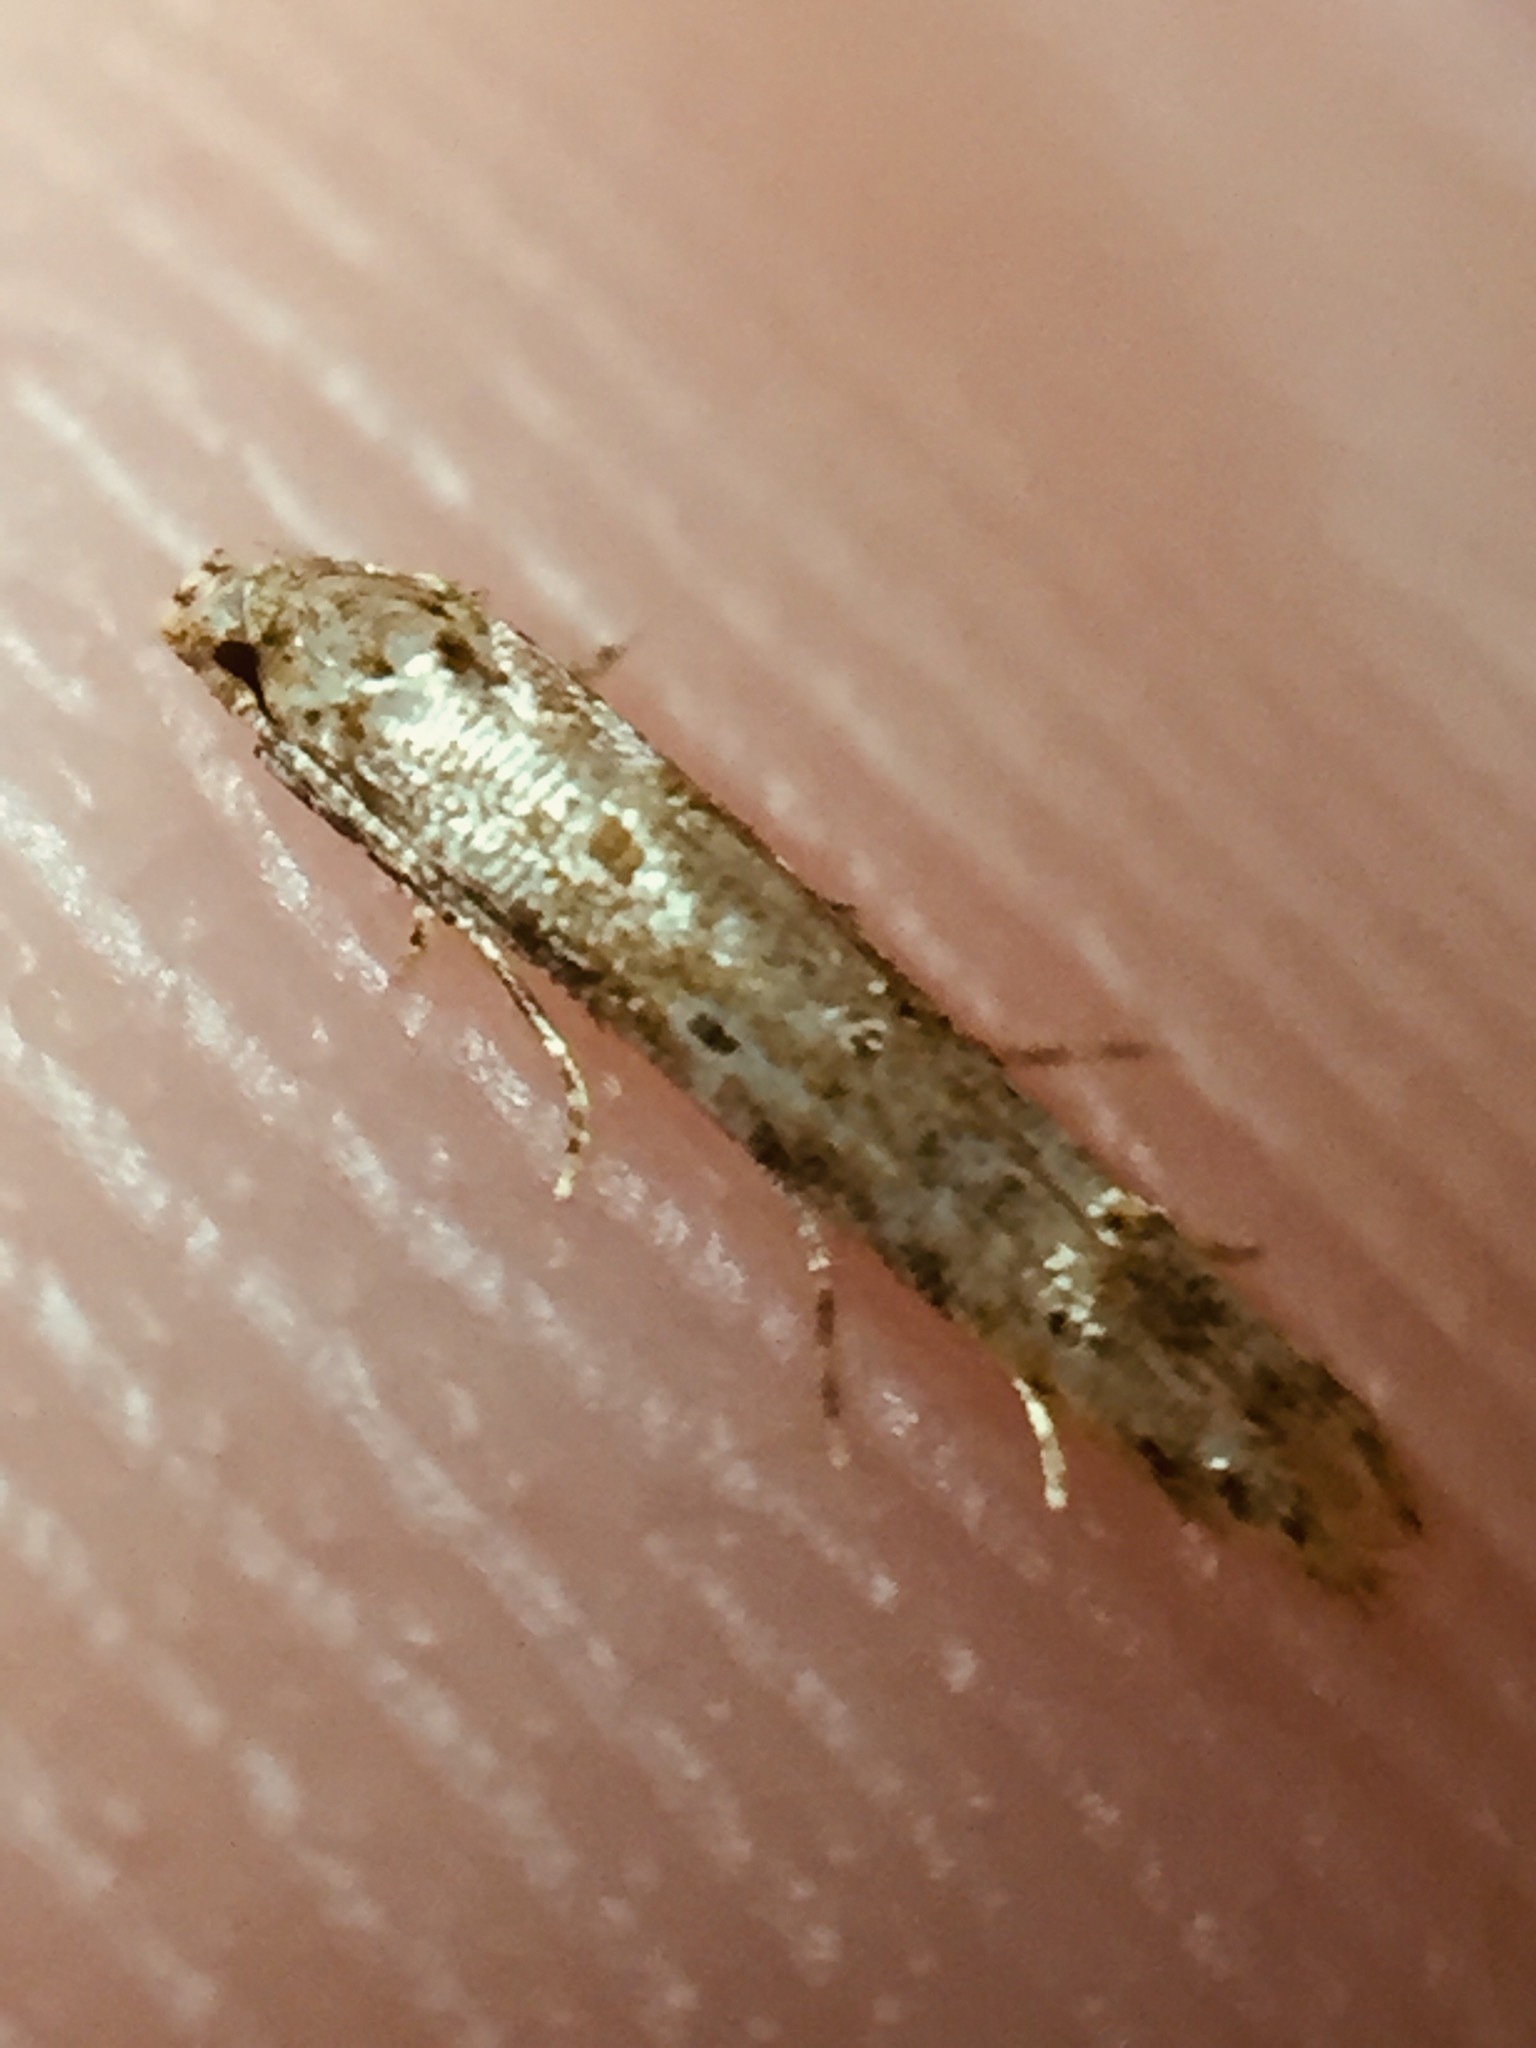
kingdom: Animalia
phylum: Arthropoda
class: Insecta
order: Lepidoptera
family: Elachistidae
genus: Microcolona
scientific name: Microcolona limodes
